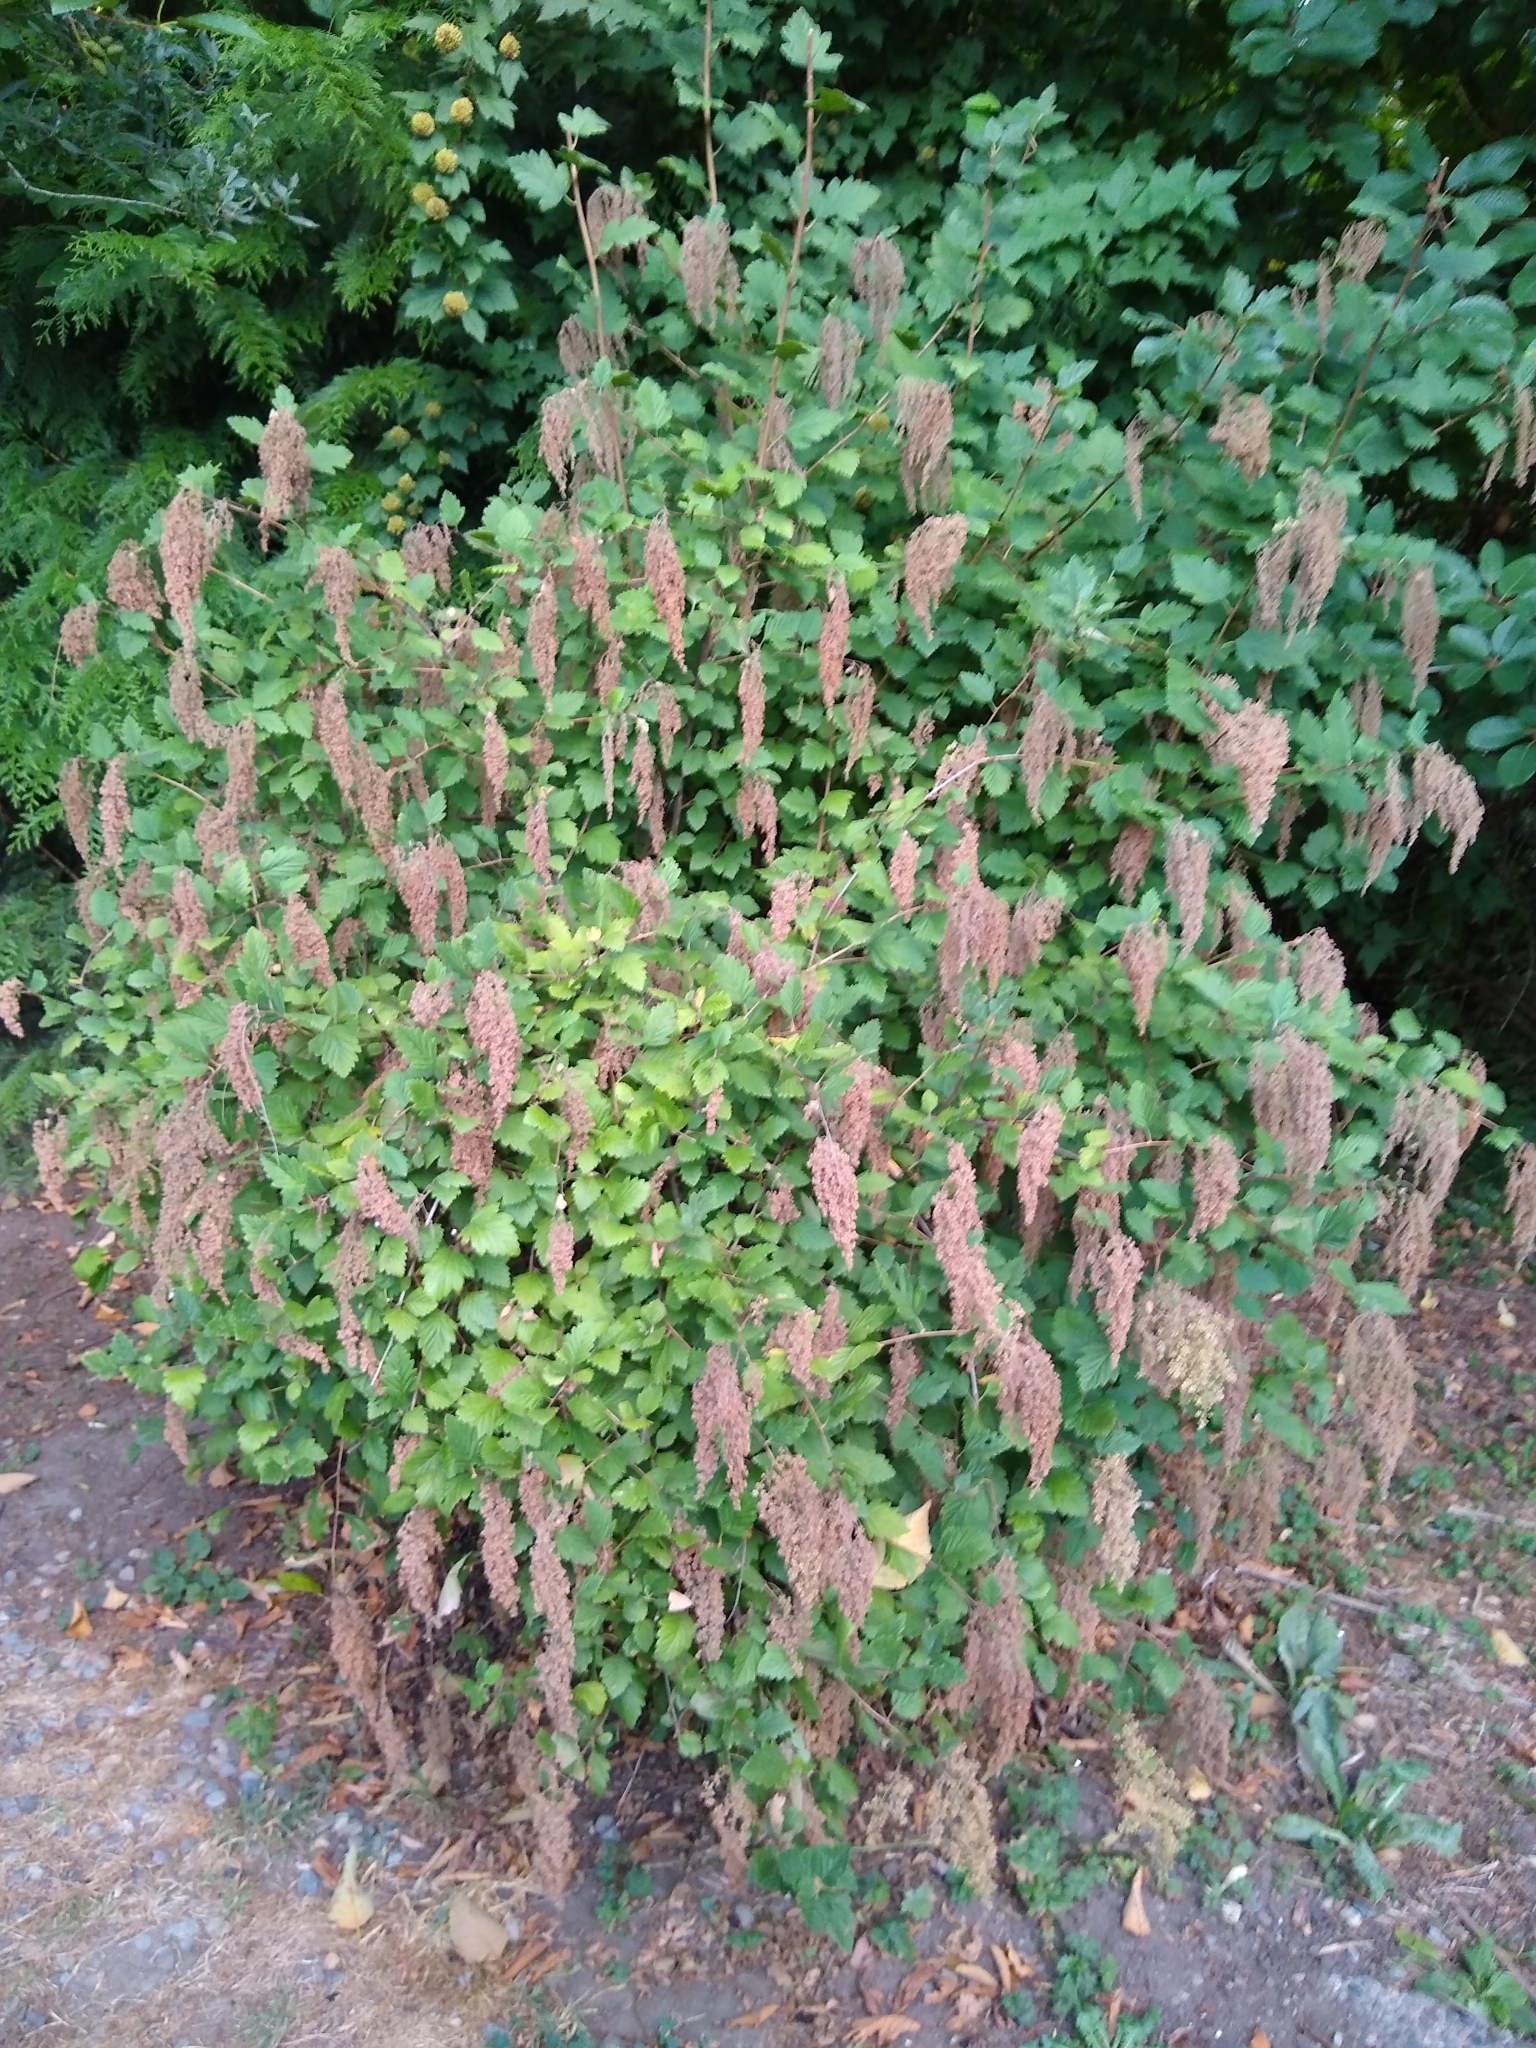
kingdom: Plantae
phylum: Tracheophyta
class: Magnoliopsida
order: Rosales
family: Rosaceae
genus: Holodiscus
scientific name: Holodiscus discolor
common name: Oceanspray
